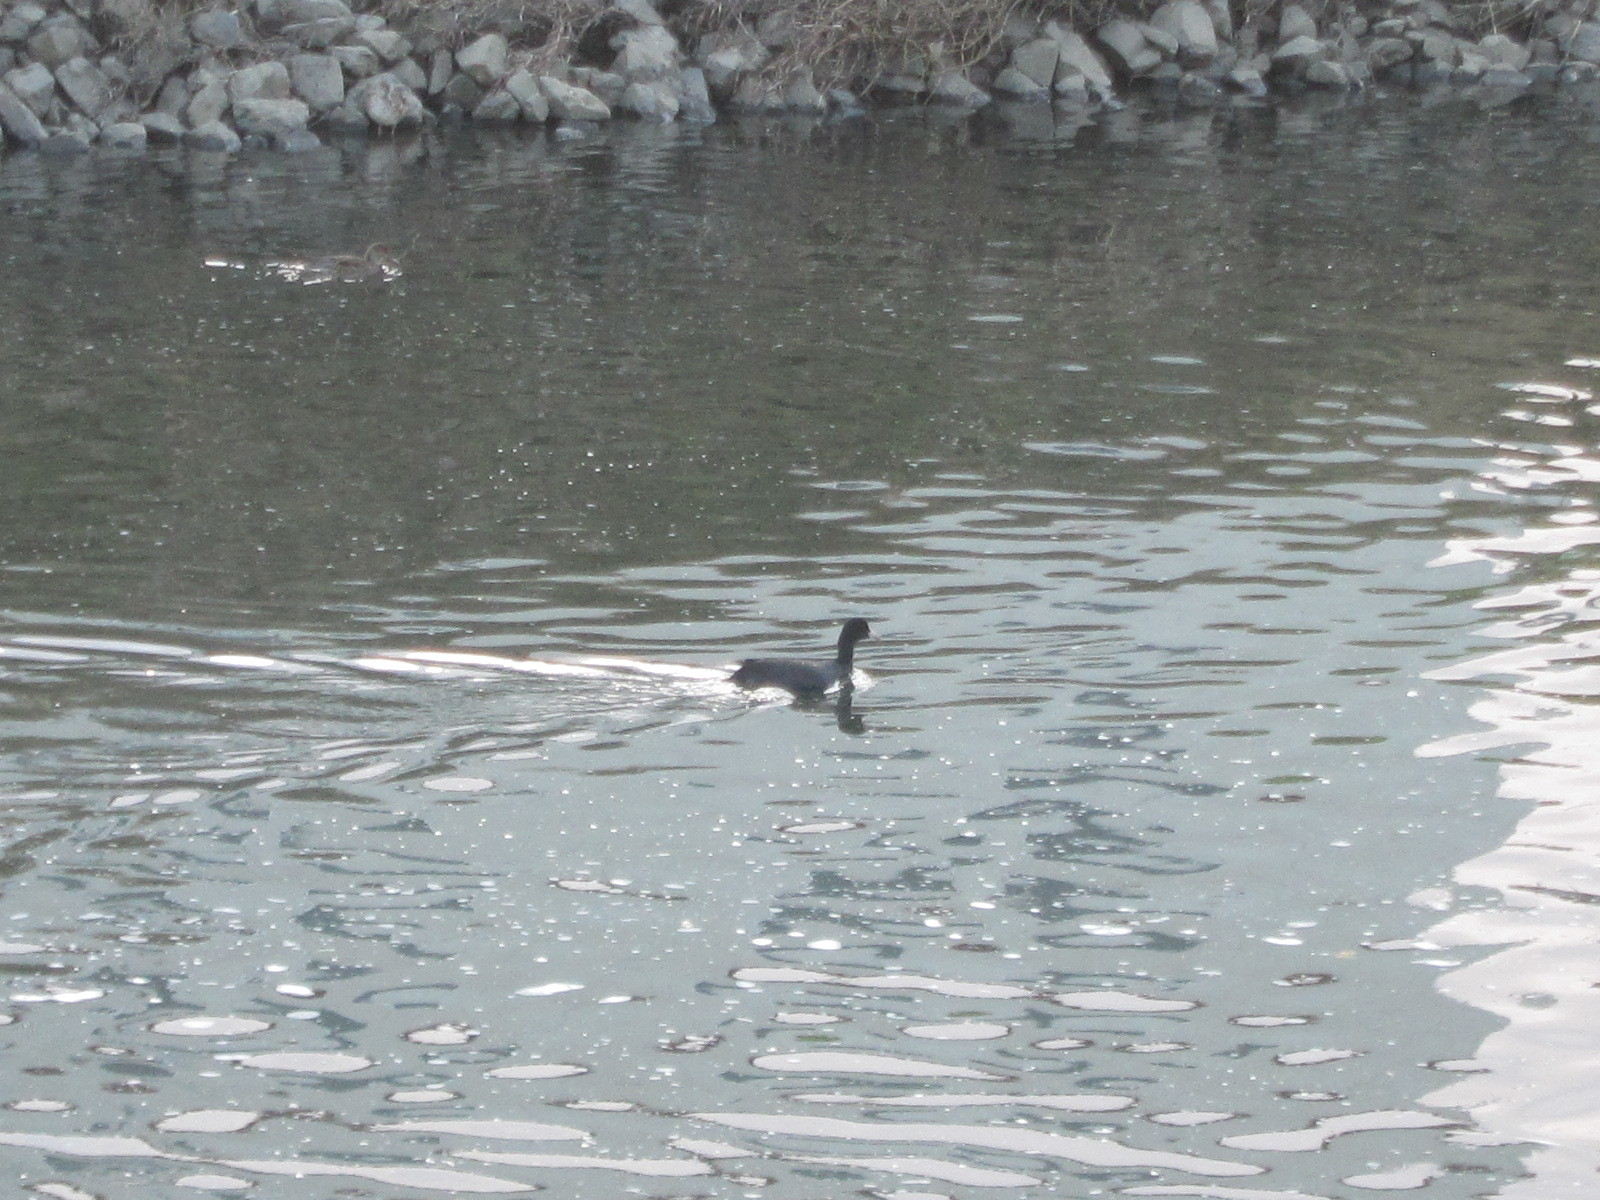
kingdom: Animalia
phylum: Chordata
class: Aves
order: Gruiformes
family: Rallidae
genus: Fulica
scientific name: Fulica atra
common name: Eurasian coot
